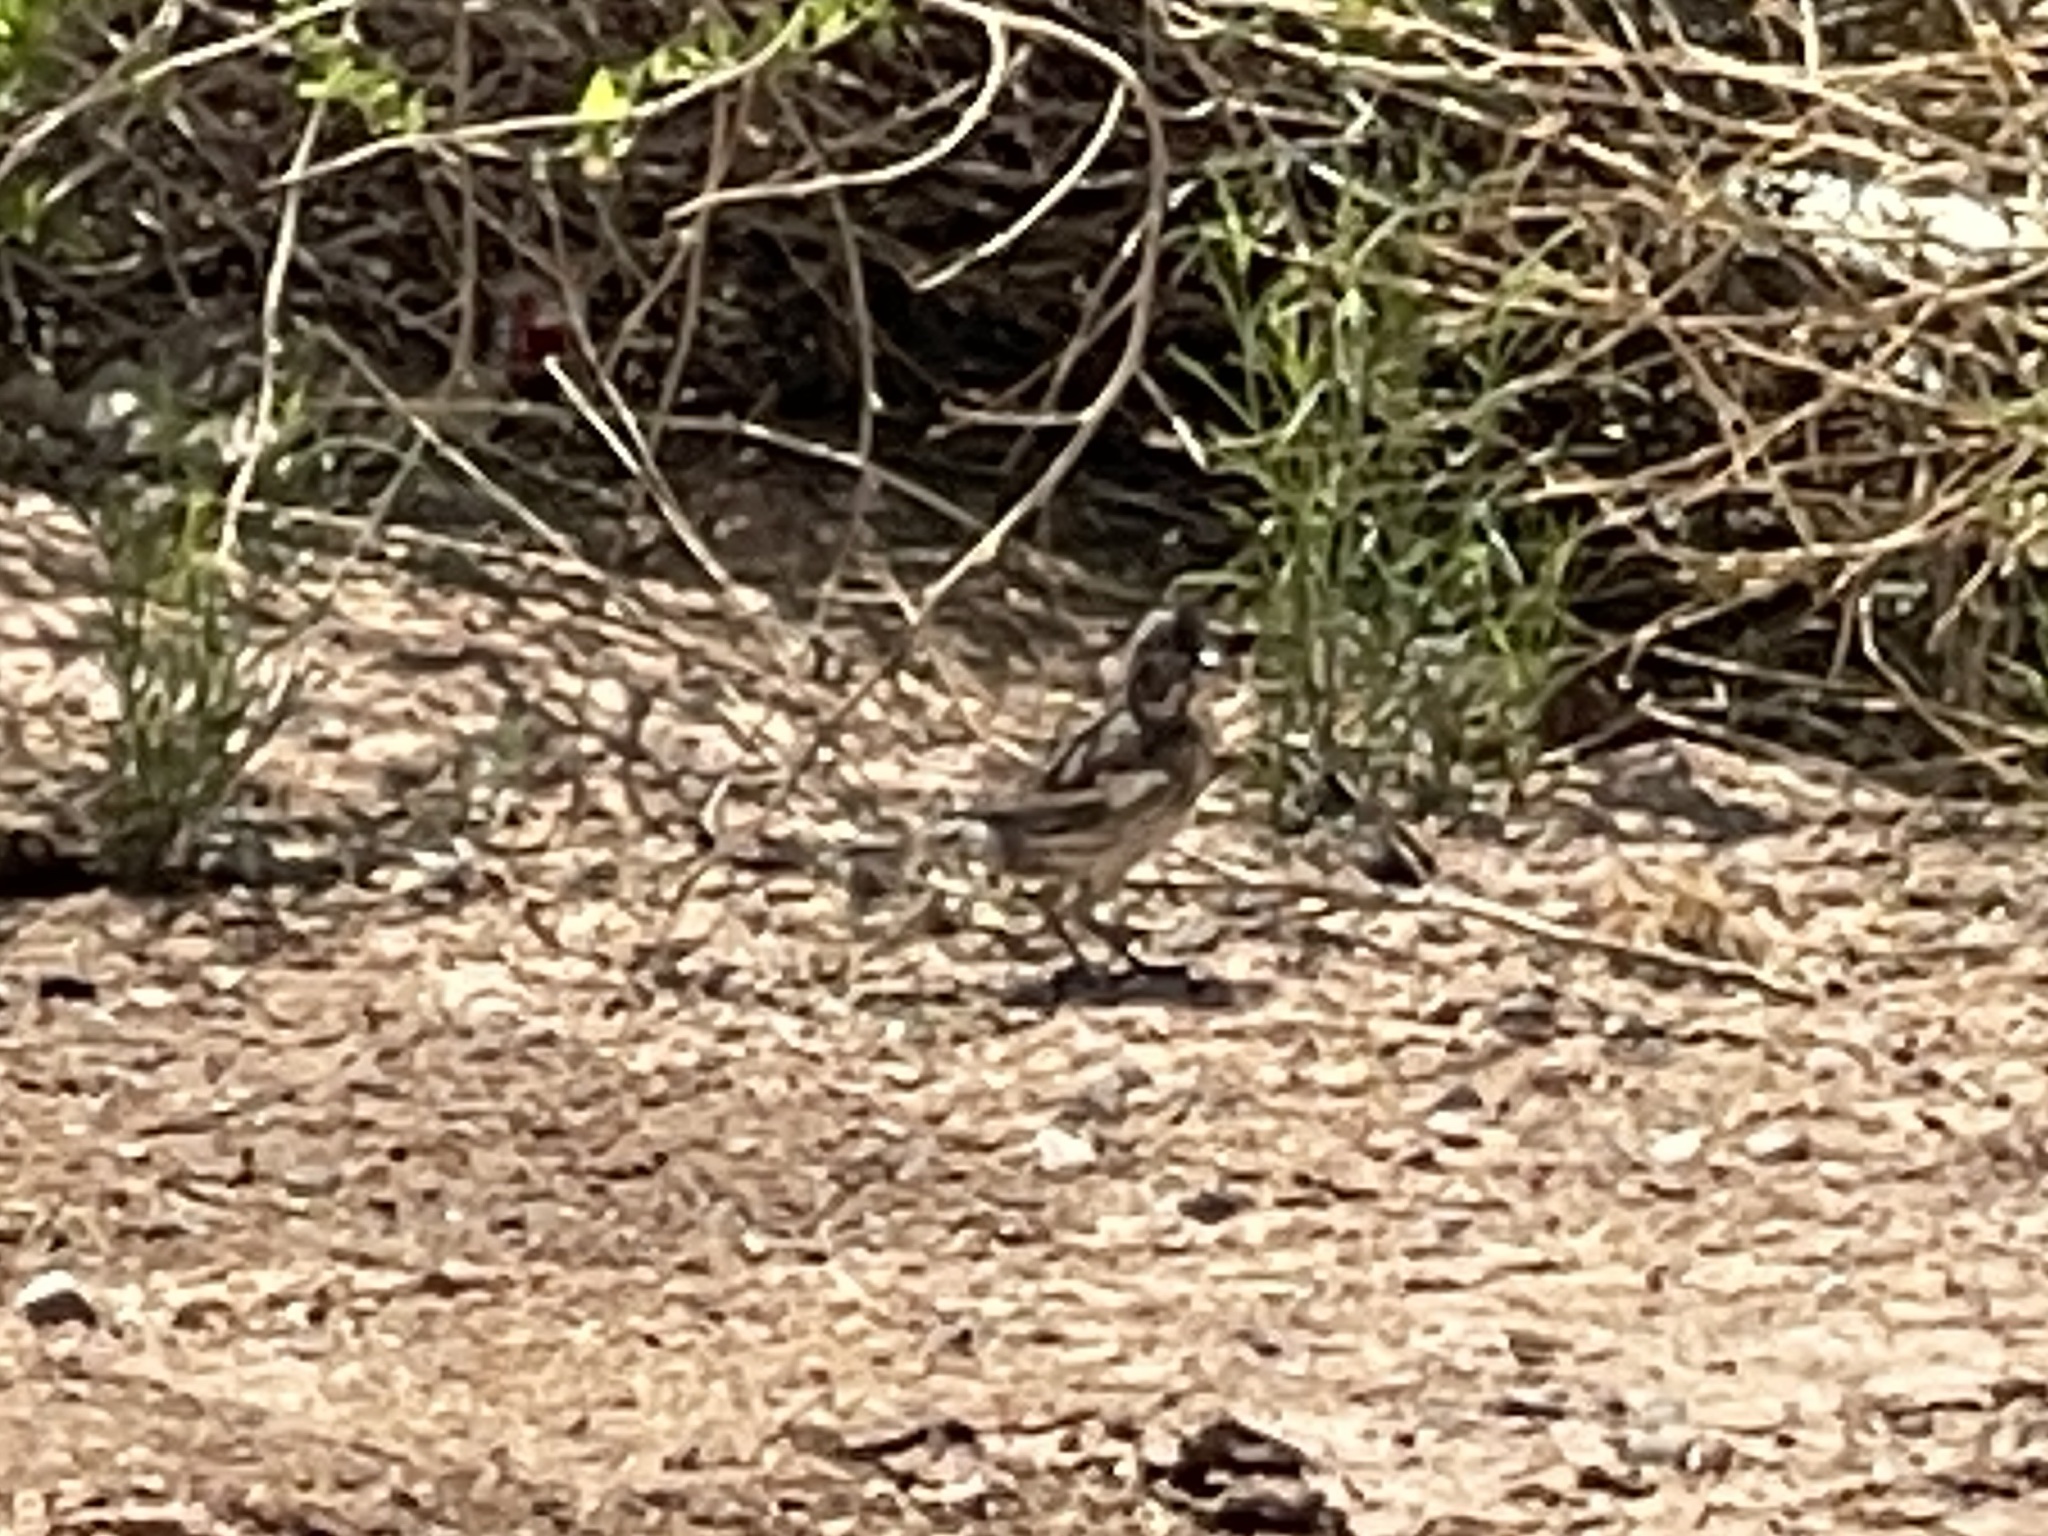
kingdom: Animalia
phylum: Chordata
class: Aves
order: Passeriformes
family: Passerellidae
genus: Calamospiza
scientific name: Calamospiza melanocorys
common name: Lark bunting
